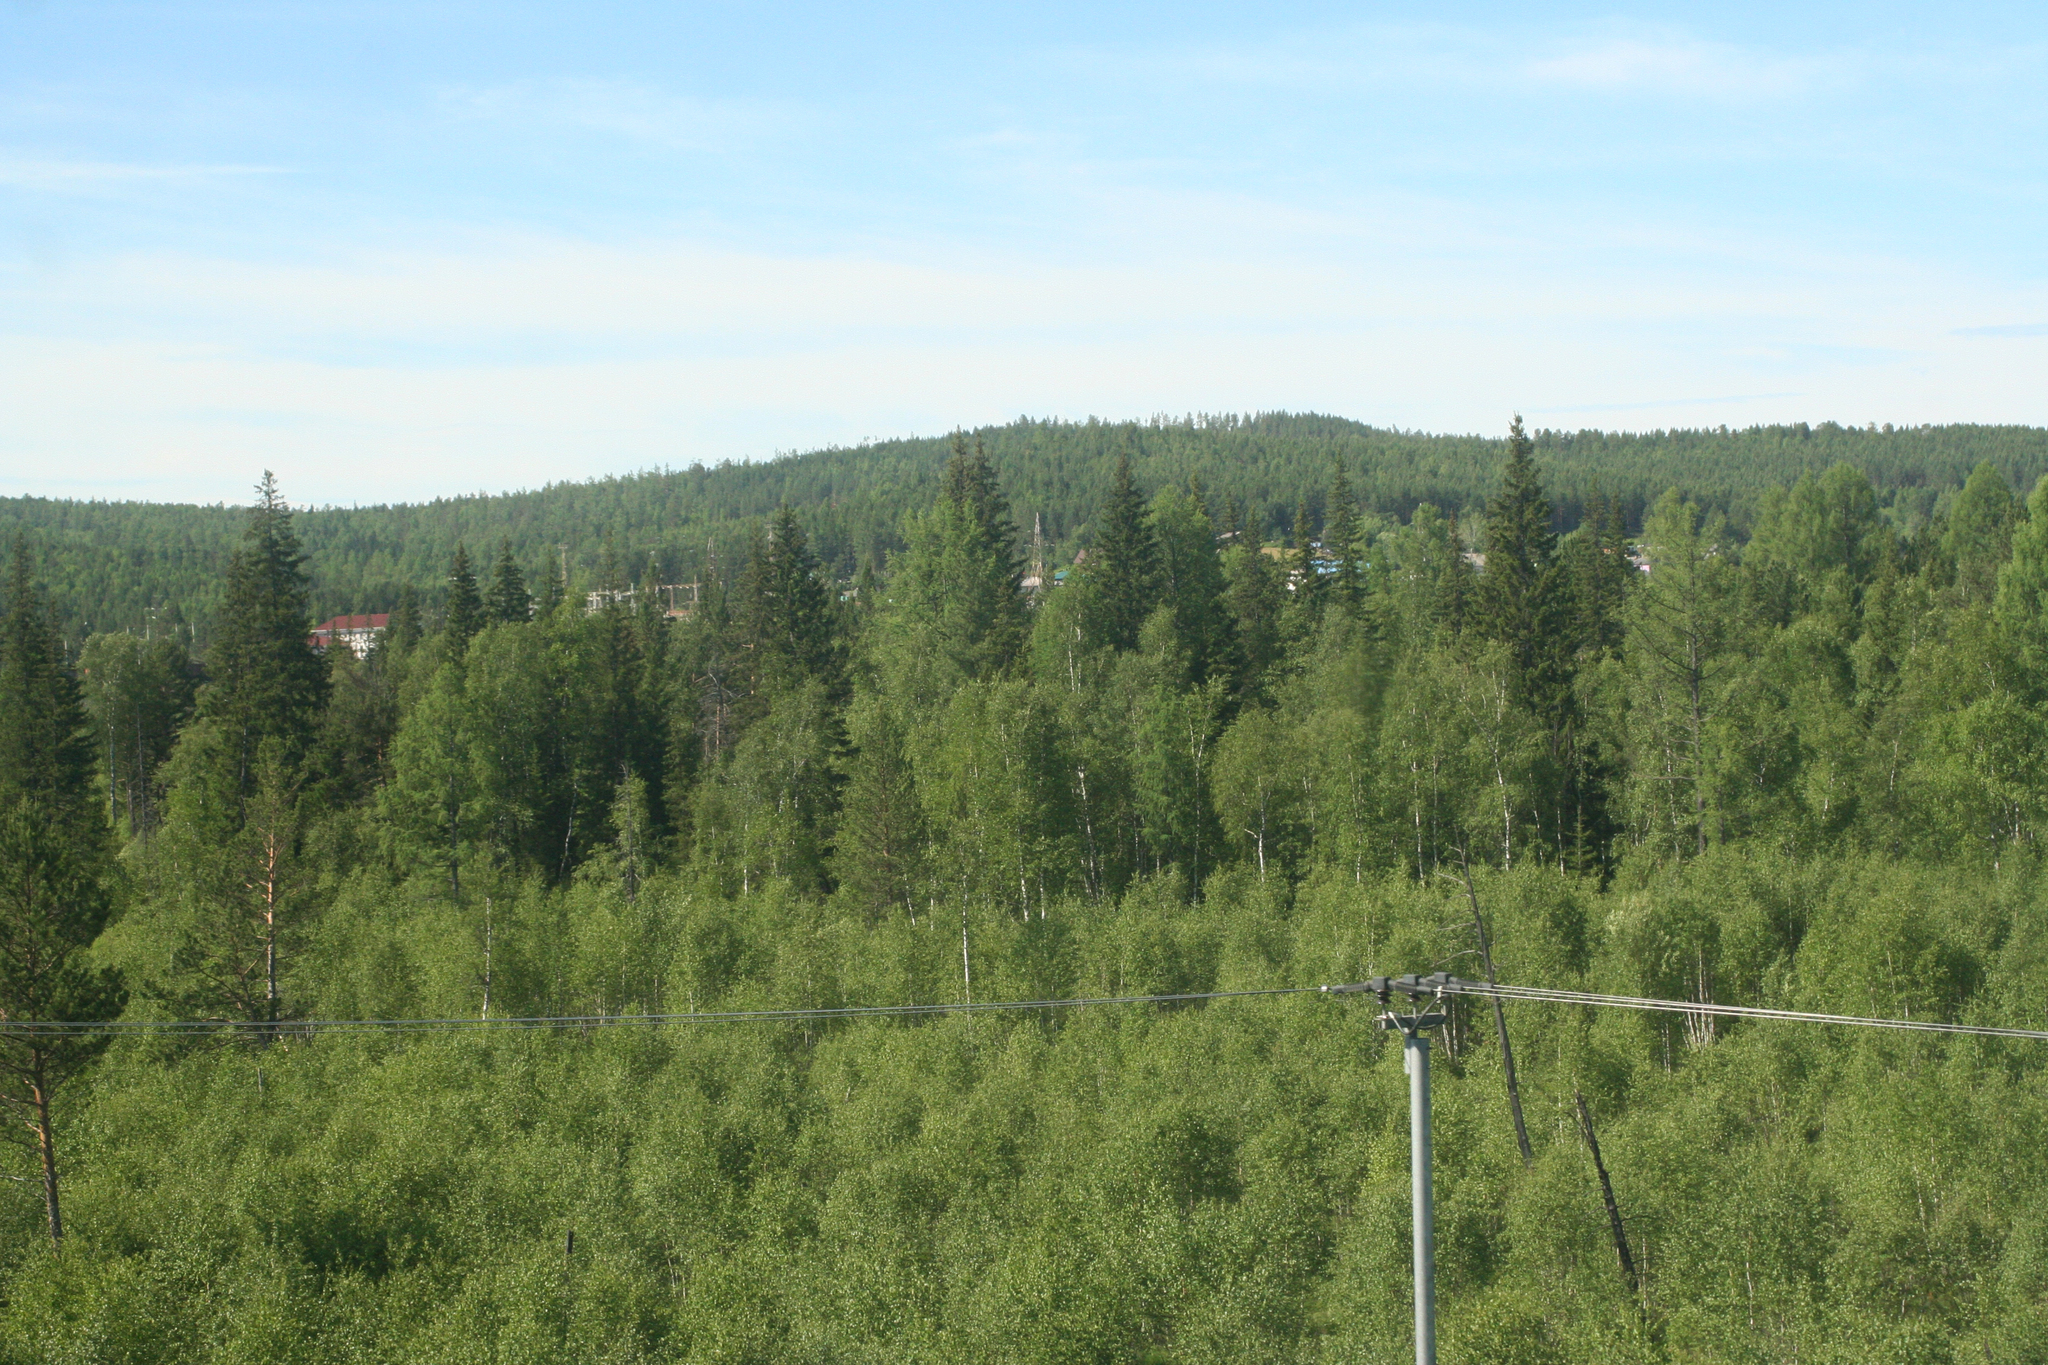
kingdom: Plantae
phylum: Tracheophyta
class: Pinopsida
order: Pinales
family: Pinaceae
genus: Pinus
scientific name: Pinus sylvestris
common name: Scots pine
